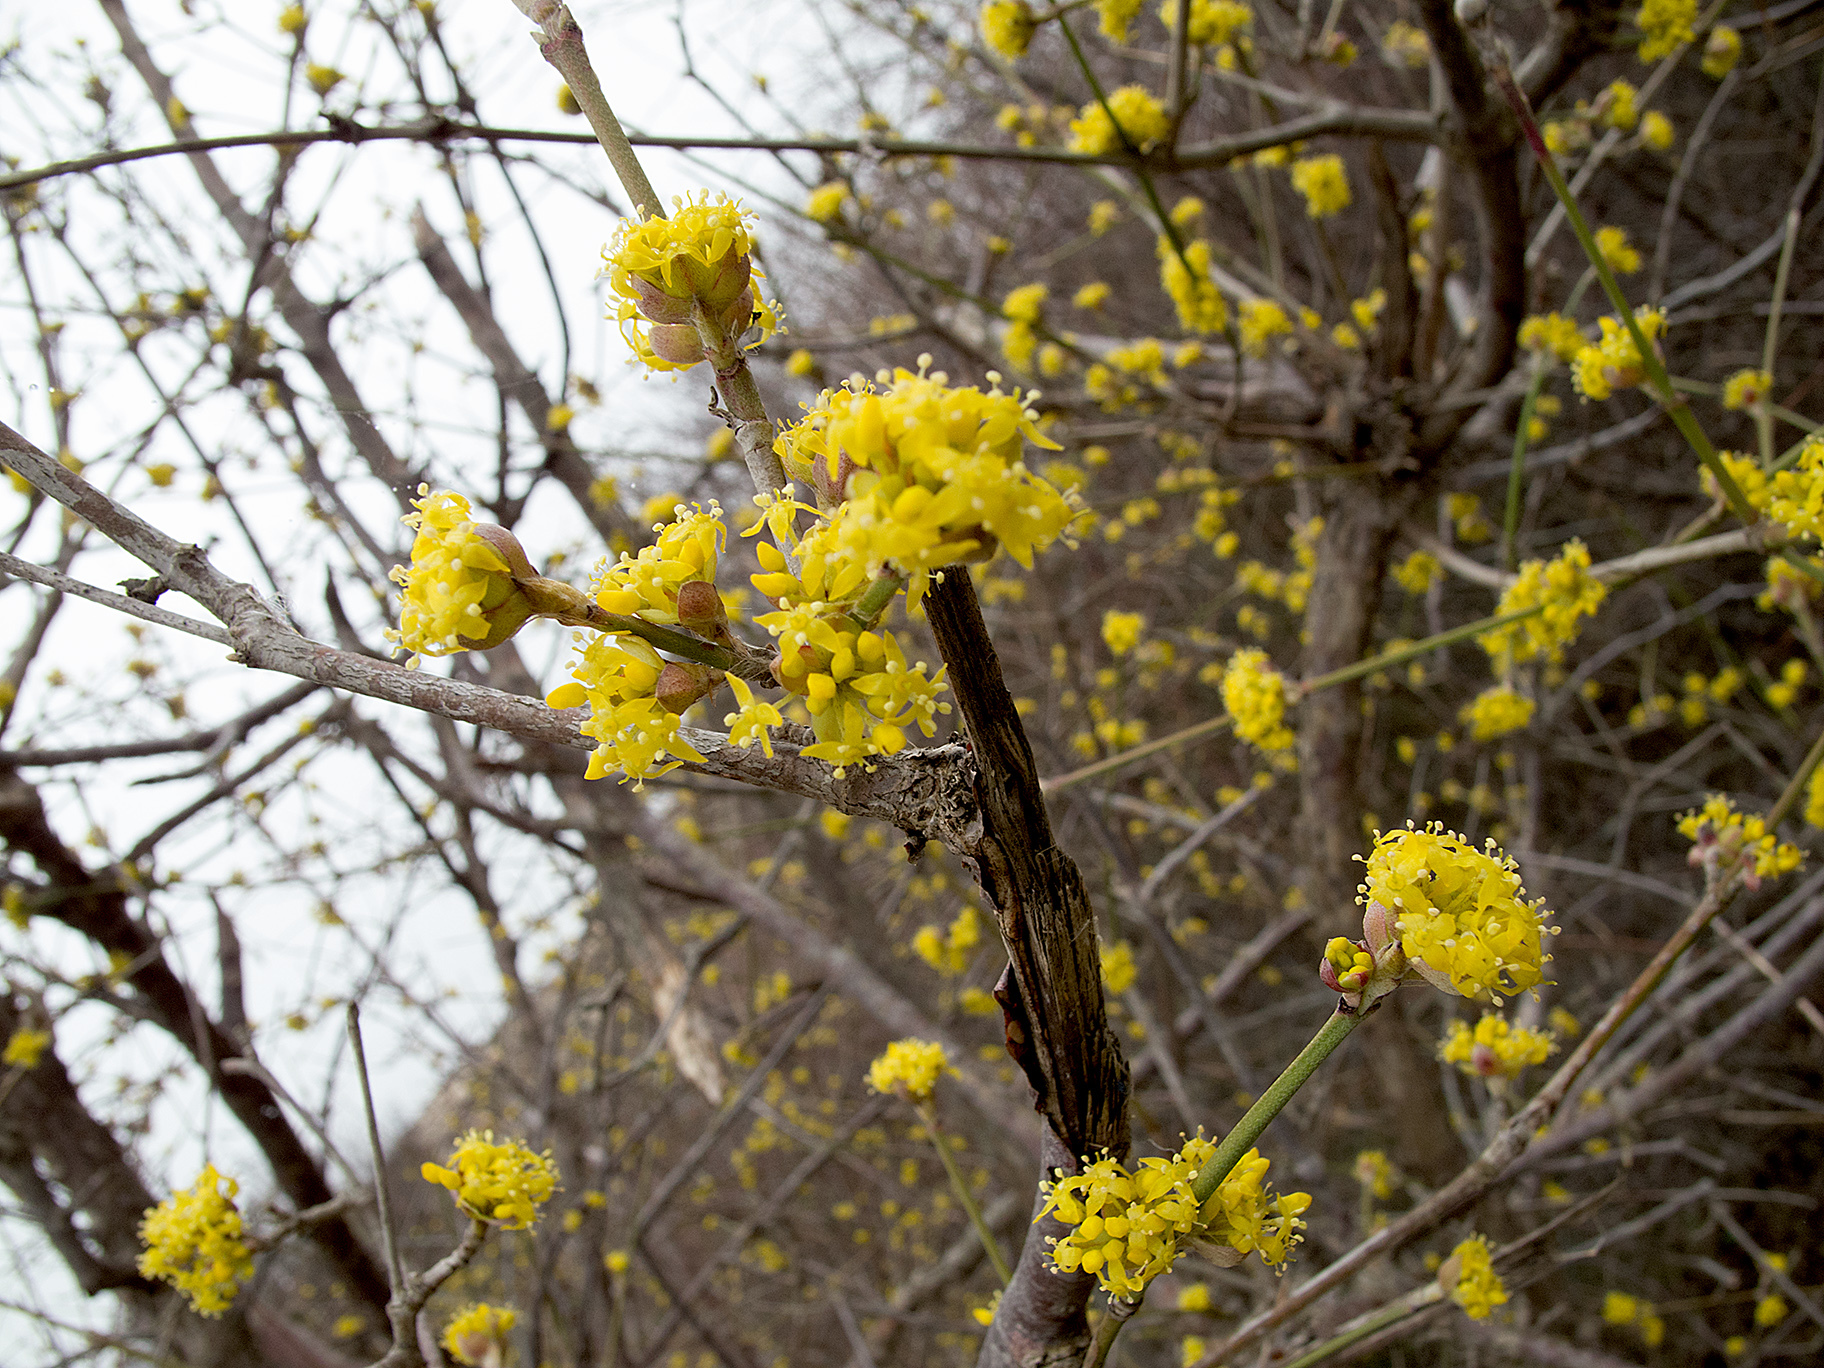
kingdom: Plantae
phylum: Tracheophyta
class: Magnoliopsida
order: Cornales
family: Cornaceae
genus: Cornus
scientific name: Cornus mas
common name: Cornelian-cherry
